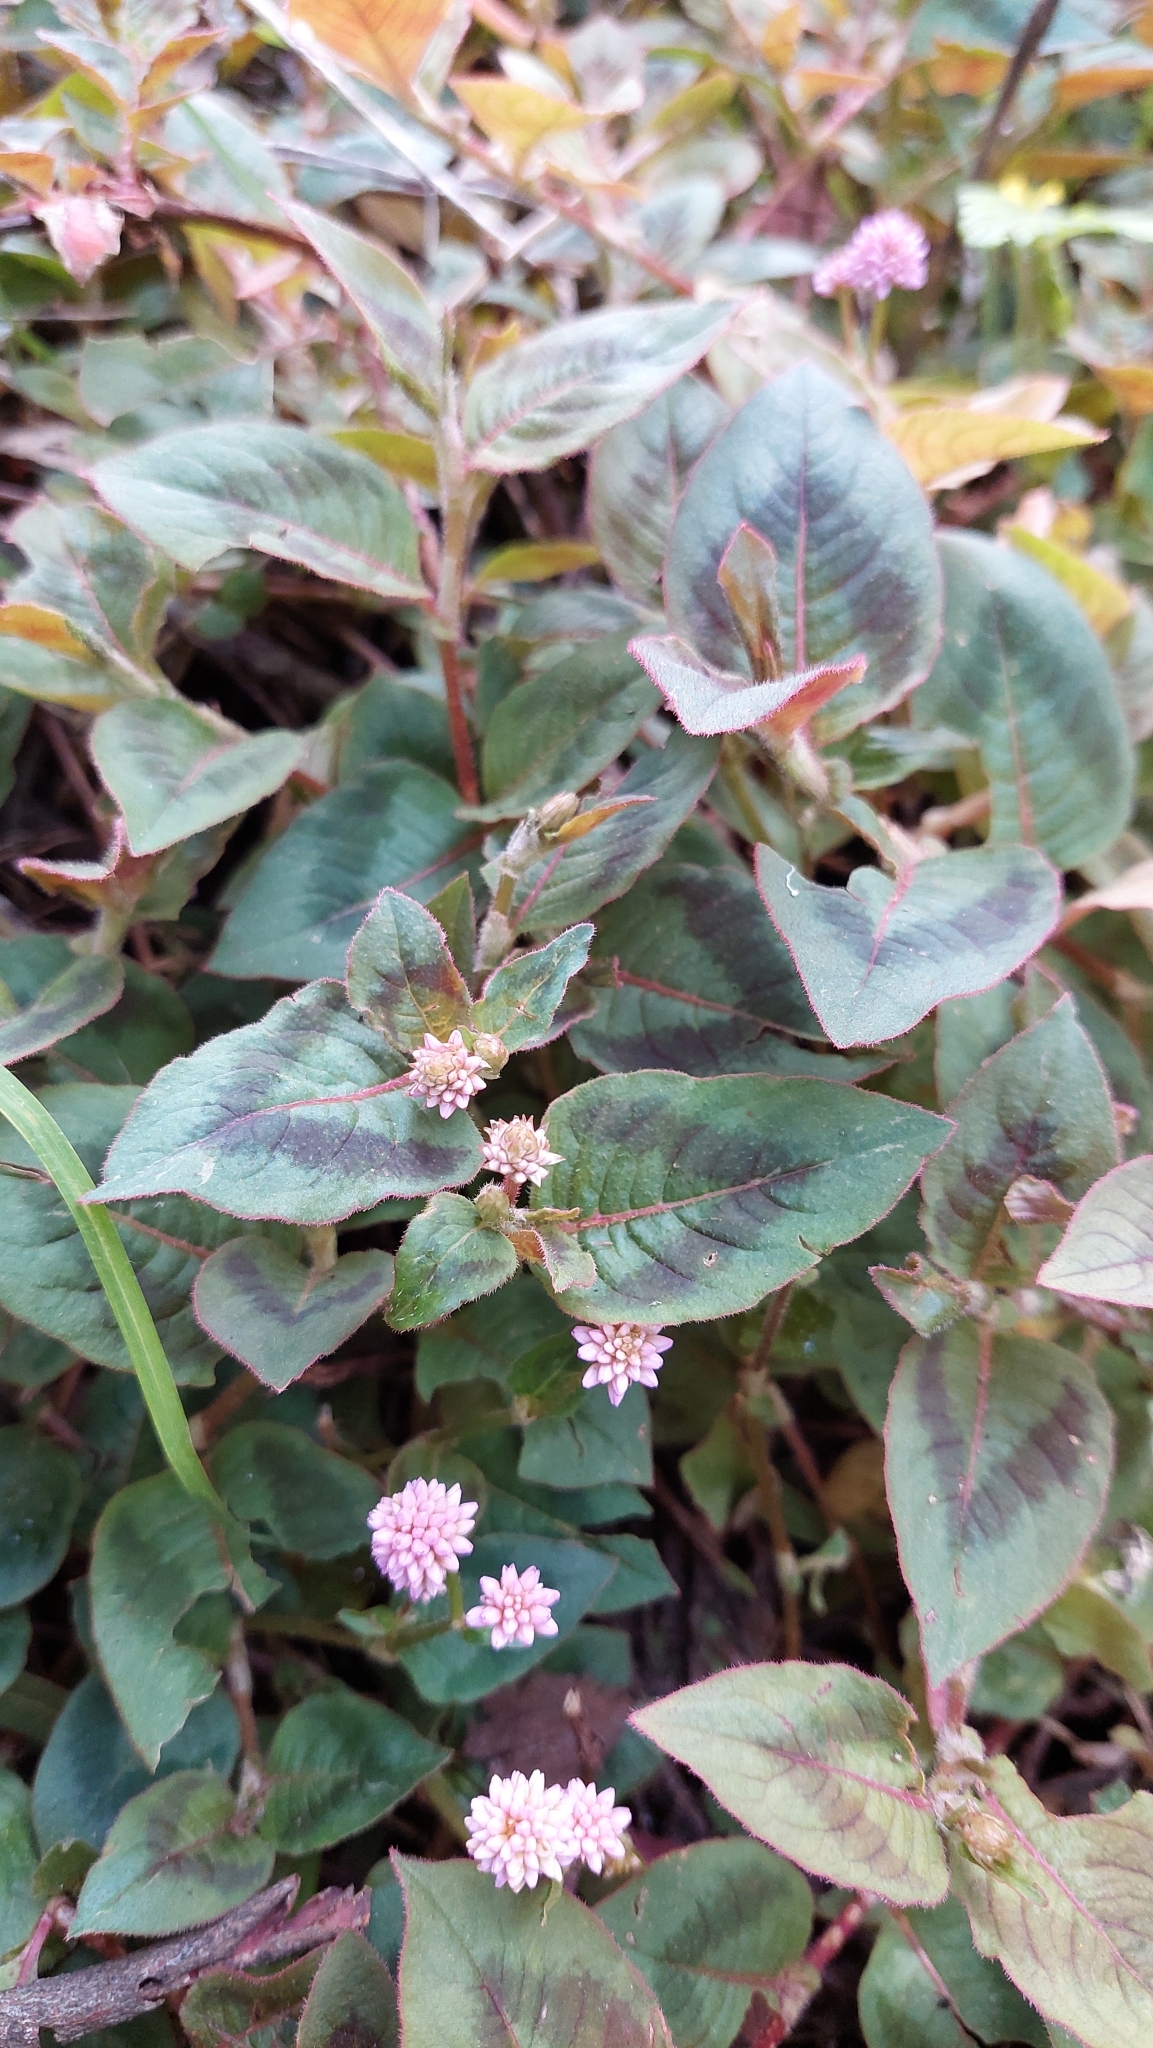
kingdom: Plantae
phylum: Tracheophyta
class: Magnoliopsida
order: Caryophyllales
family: Polygonaceae
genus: Persicaria
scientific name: Persicaria capitata
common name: Pinkhead smartweed
